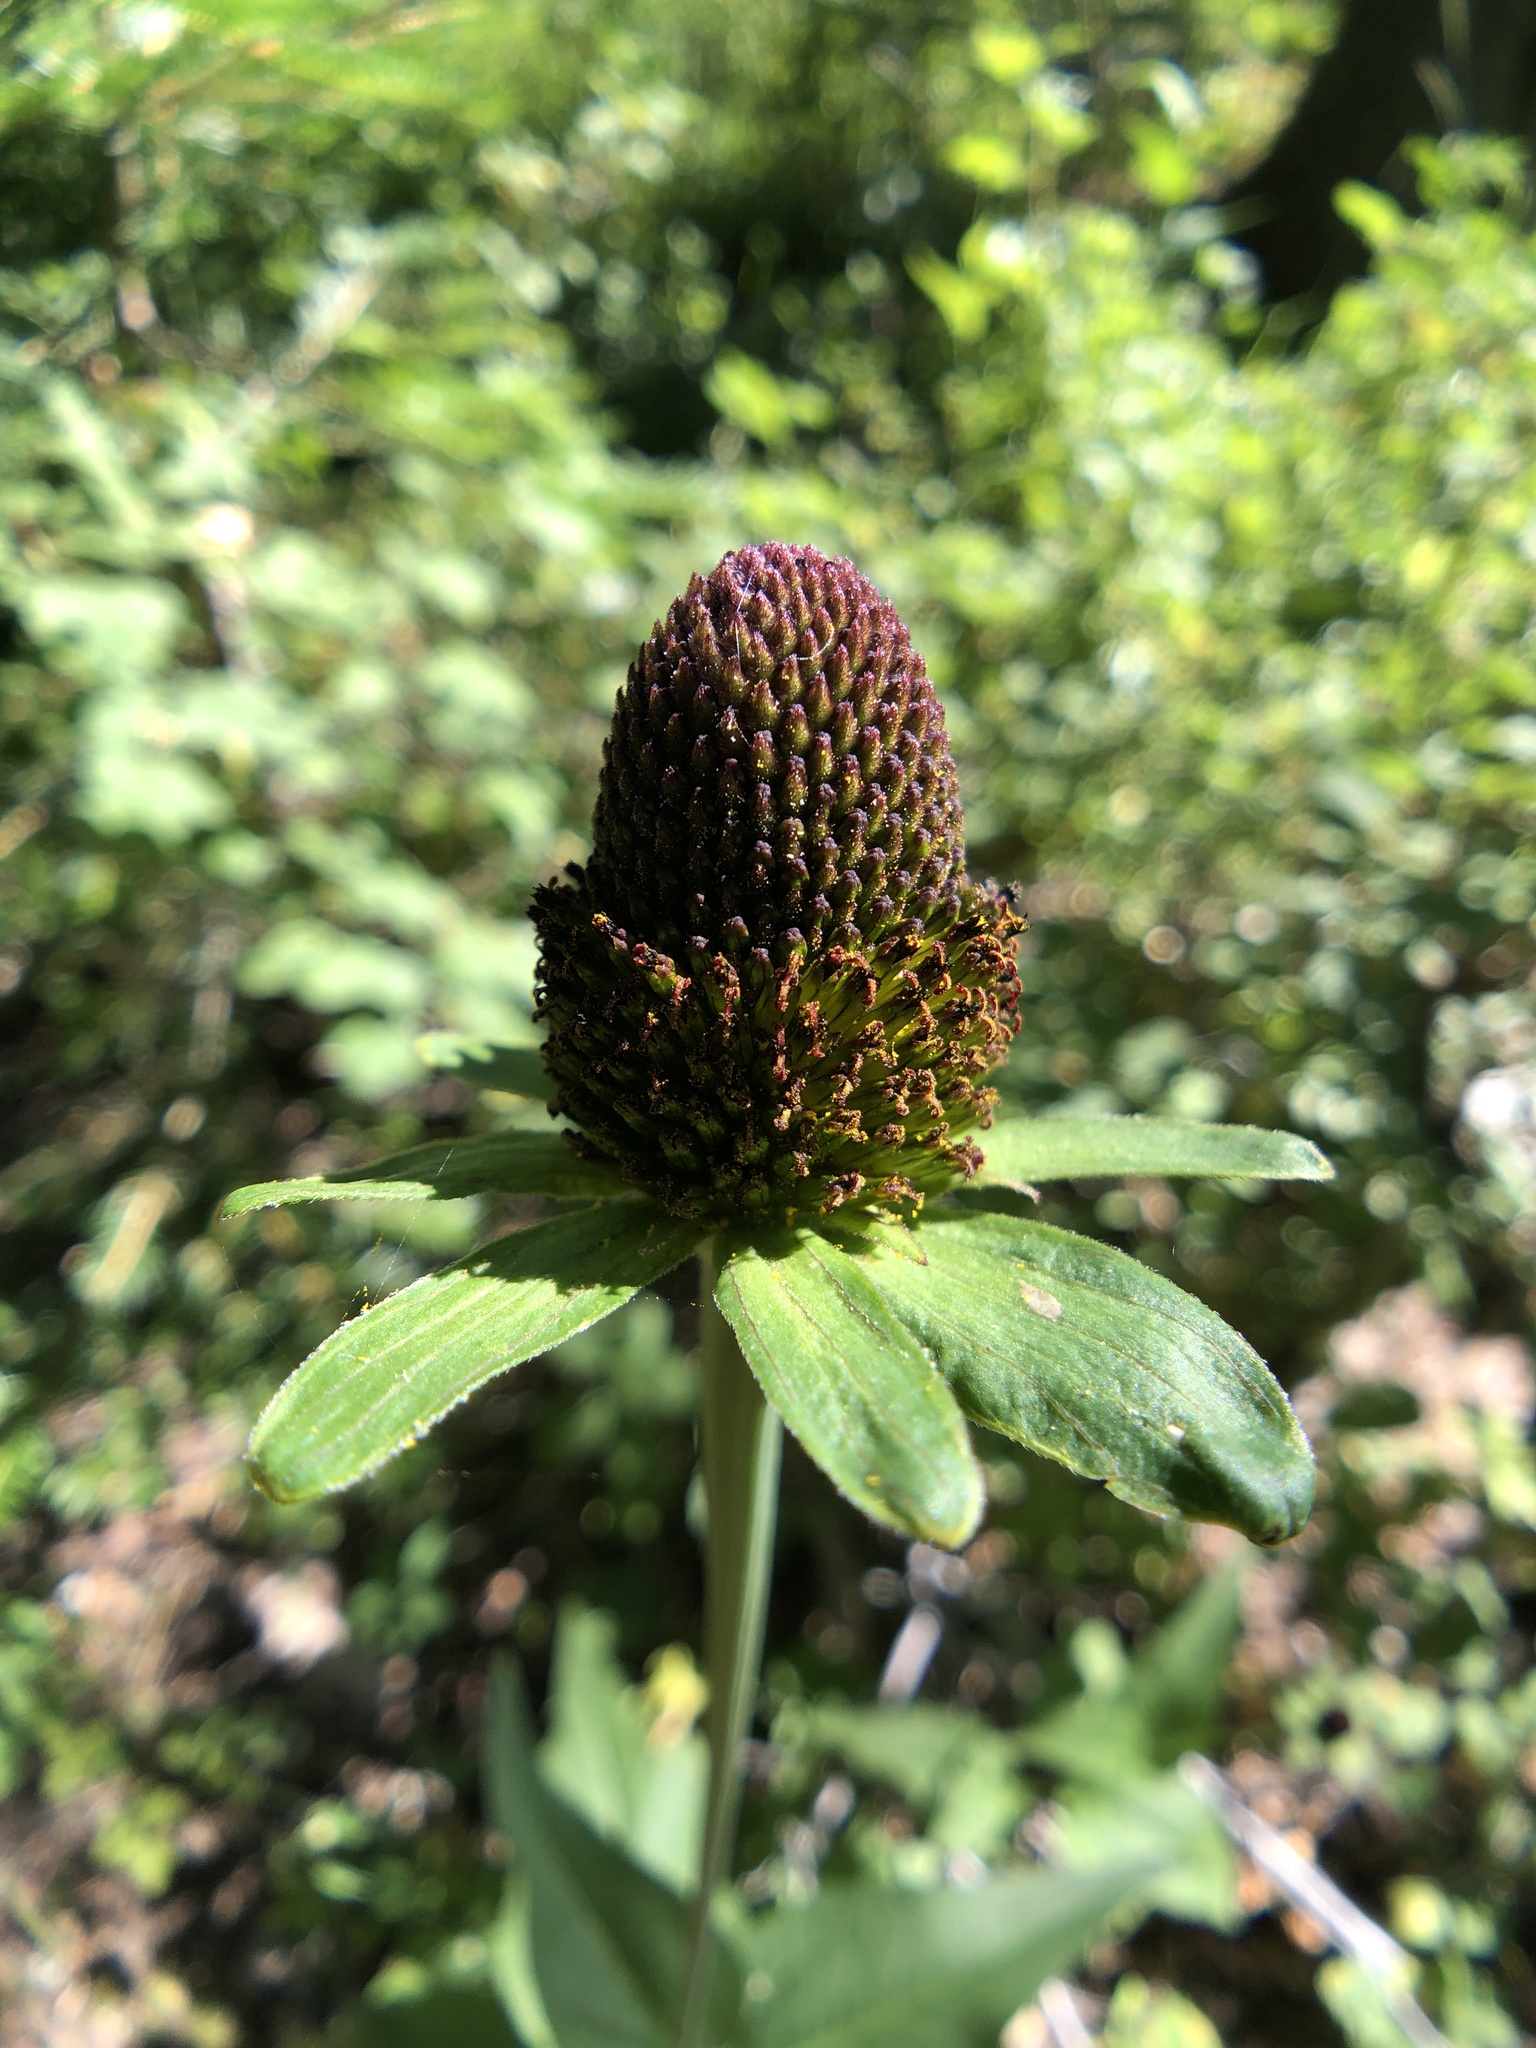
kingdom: Plantae
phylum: Tracheophyta
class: Magnoliopsida
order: Asterales
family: Asteraceae
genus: Rudbeckia
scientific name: Rudbeckia occidentalis
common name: Western coneflower
